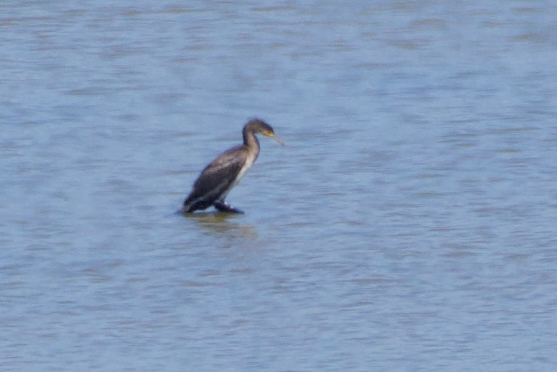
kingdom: Animalia
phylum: Chordata
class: Aves
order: Suliformes
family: Phalacrocoracidae
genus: Phalacrocorax
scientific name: Phalacrocorax carbo
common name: Great cormorant
